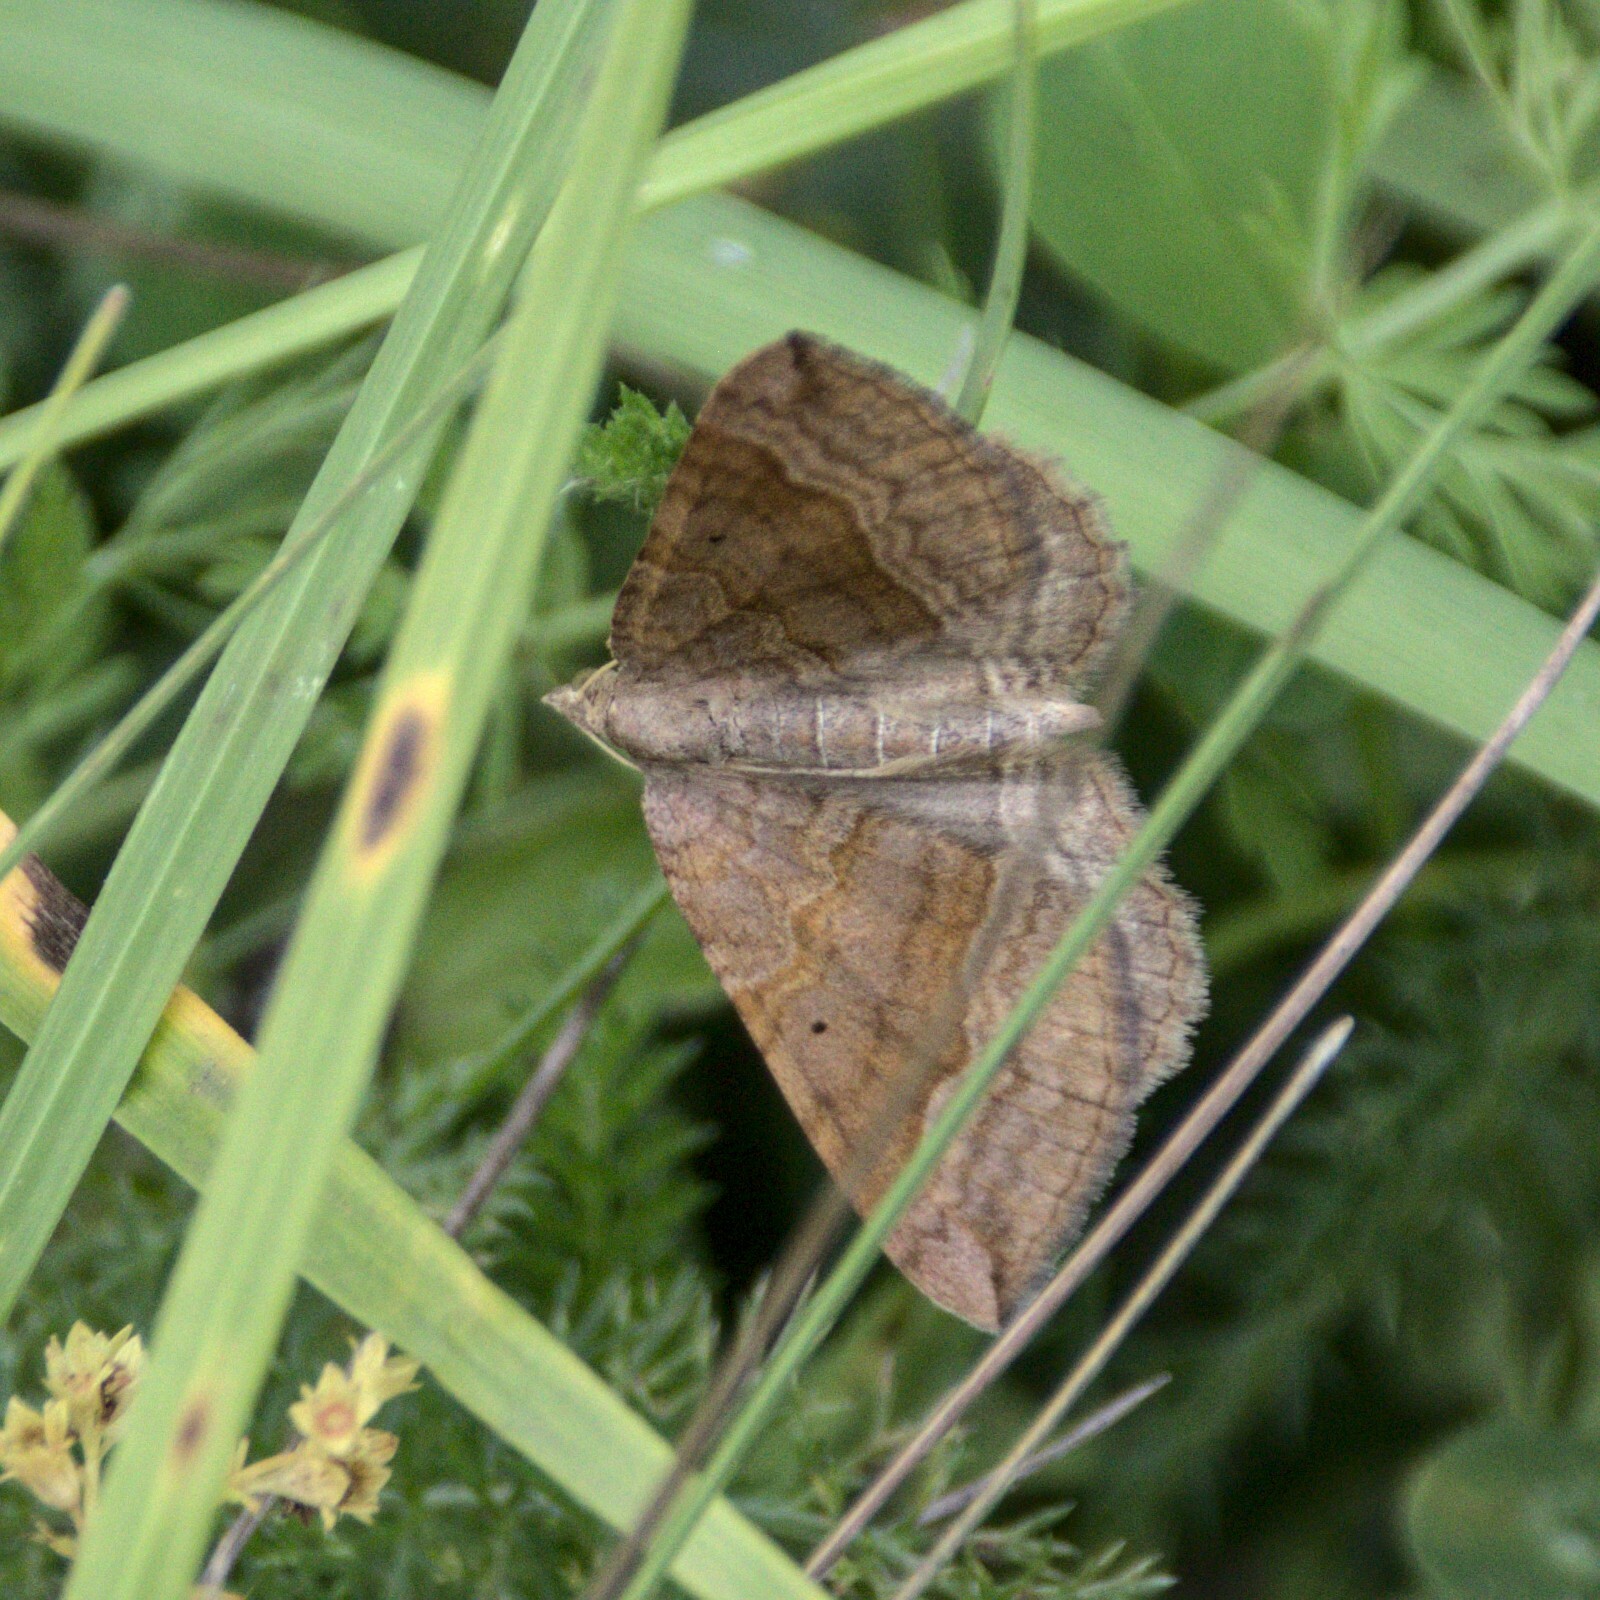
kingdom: Animalia
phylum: Arthropoda
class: Insecta
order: Lepidoptera
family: Geometridae
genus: Scotopteryx
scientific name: Scotopteryx chenopodiata
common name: Shaded broad-bar
